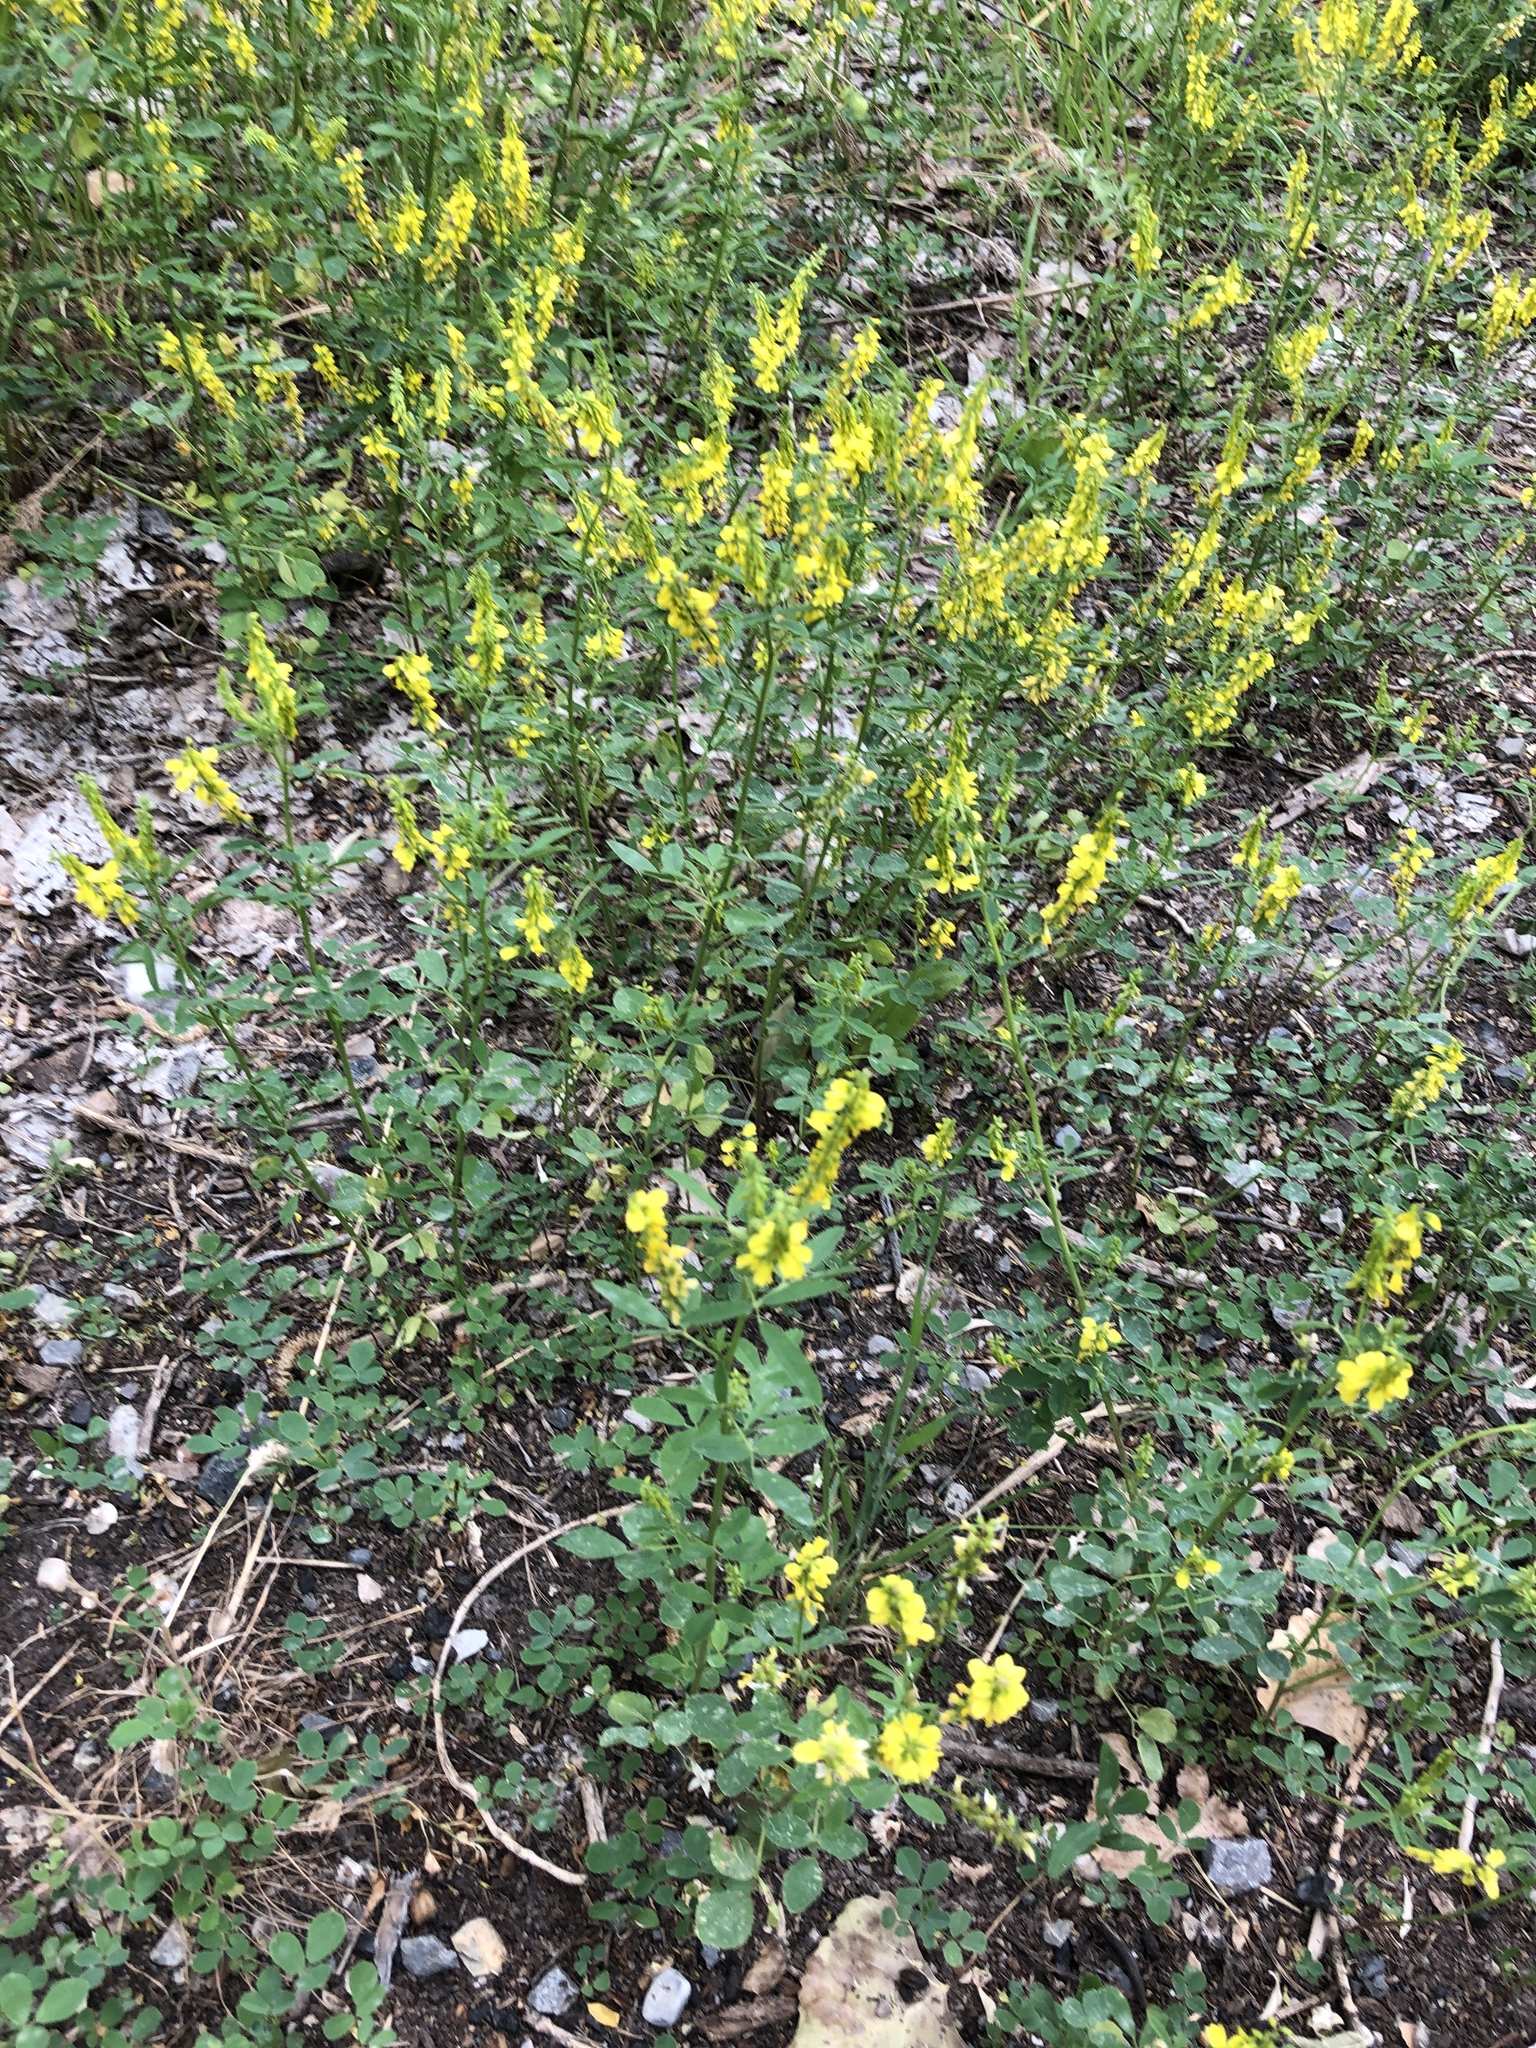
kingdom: Plantae
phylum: Tracheophyta
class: Magnoliopsida
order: Fabales
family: Fabaceae
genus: Melilotus
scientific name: Melilotus officinalis
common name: Sweetclover
